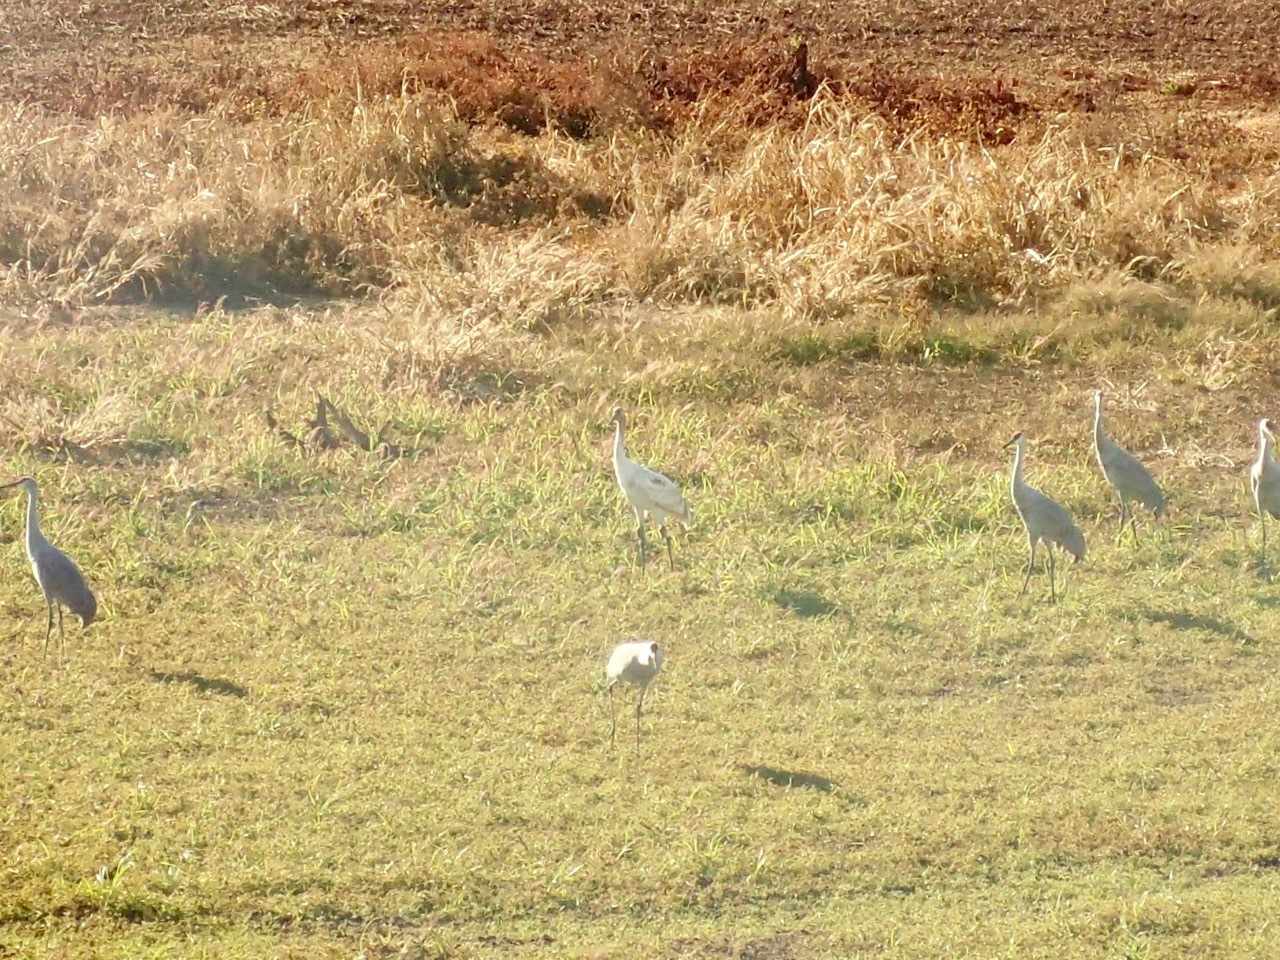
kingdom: Animalia
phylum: Chordata
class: Aves
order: Gruiformes
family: Gruidae
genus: Grus
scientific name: Grus americana
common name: Whooping crane
